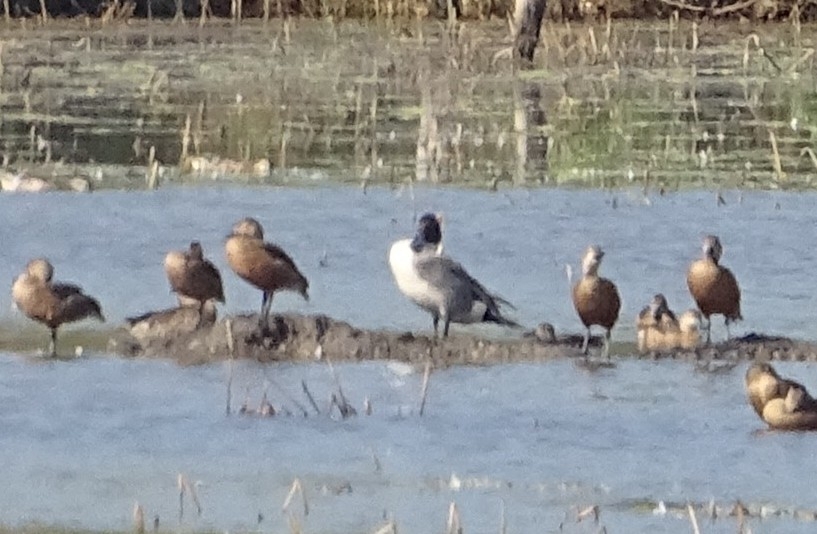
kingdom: Animalia
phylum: Chordata
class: Aves
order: Anseriformes
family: Anatidae
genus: Anas
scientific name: Anas acuta
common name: Northern pintail
